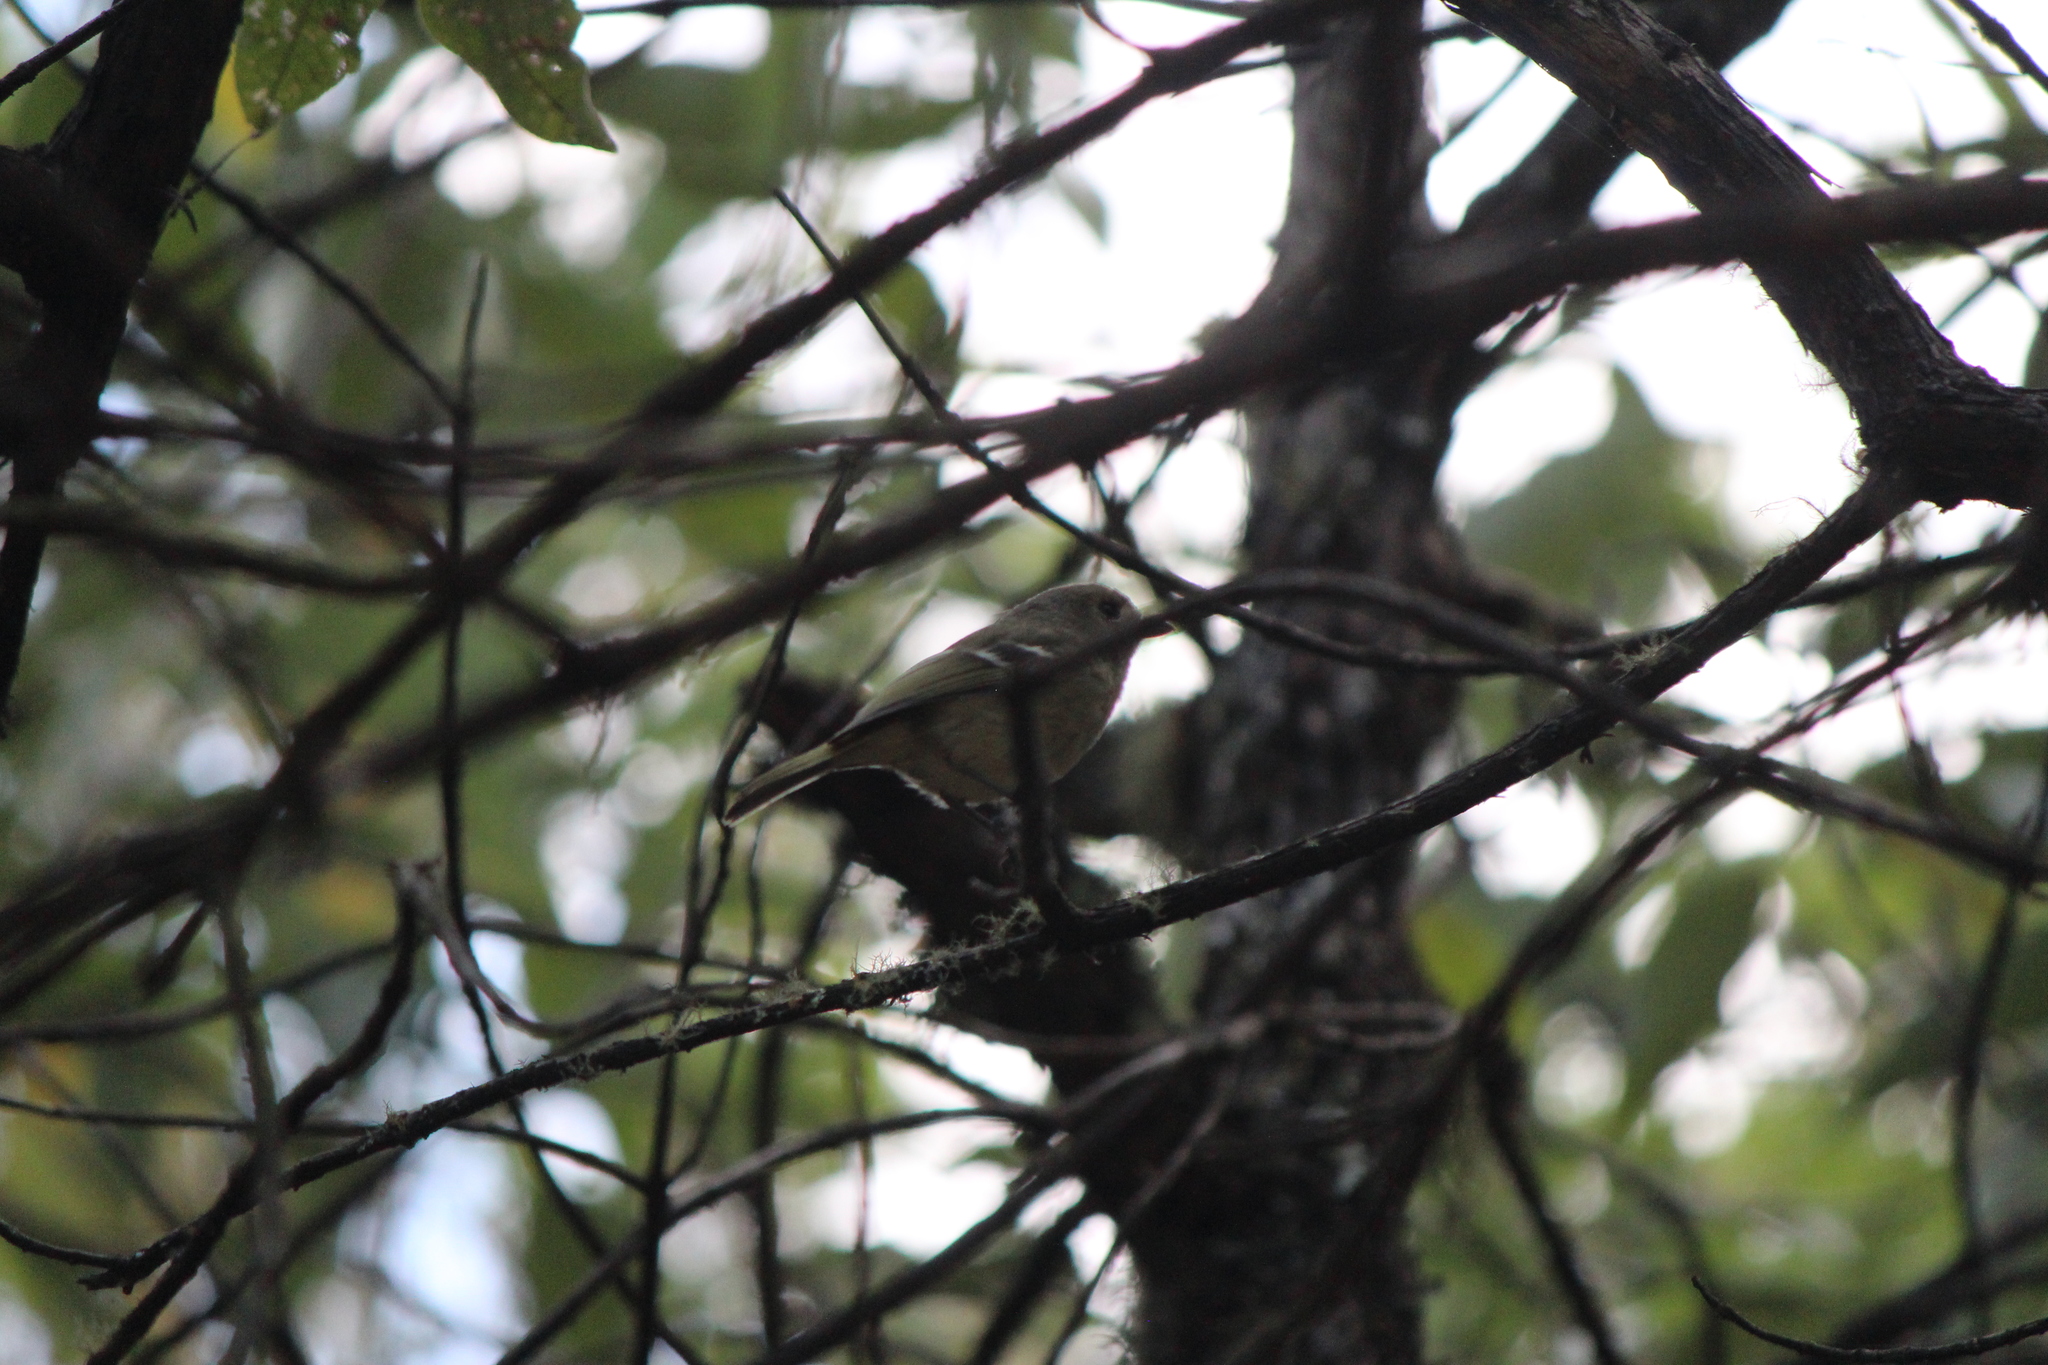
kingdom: Animalia
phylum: Chordata
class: Aves
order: Passeriformes
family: Vireonidae
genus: Vireo
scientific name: Vireo huttoni
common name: Hutton's vireo
